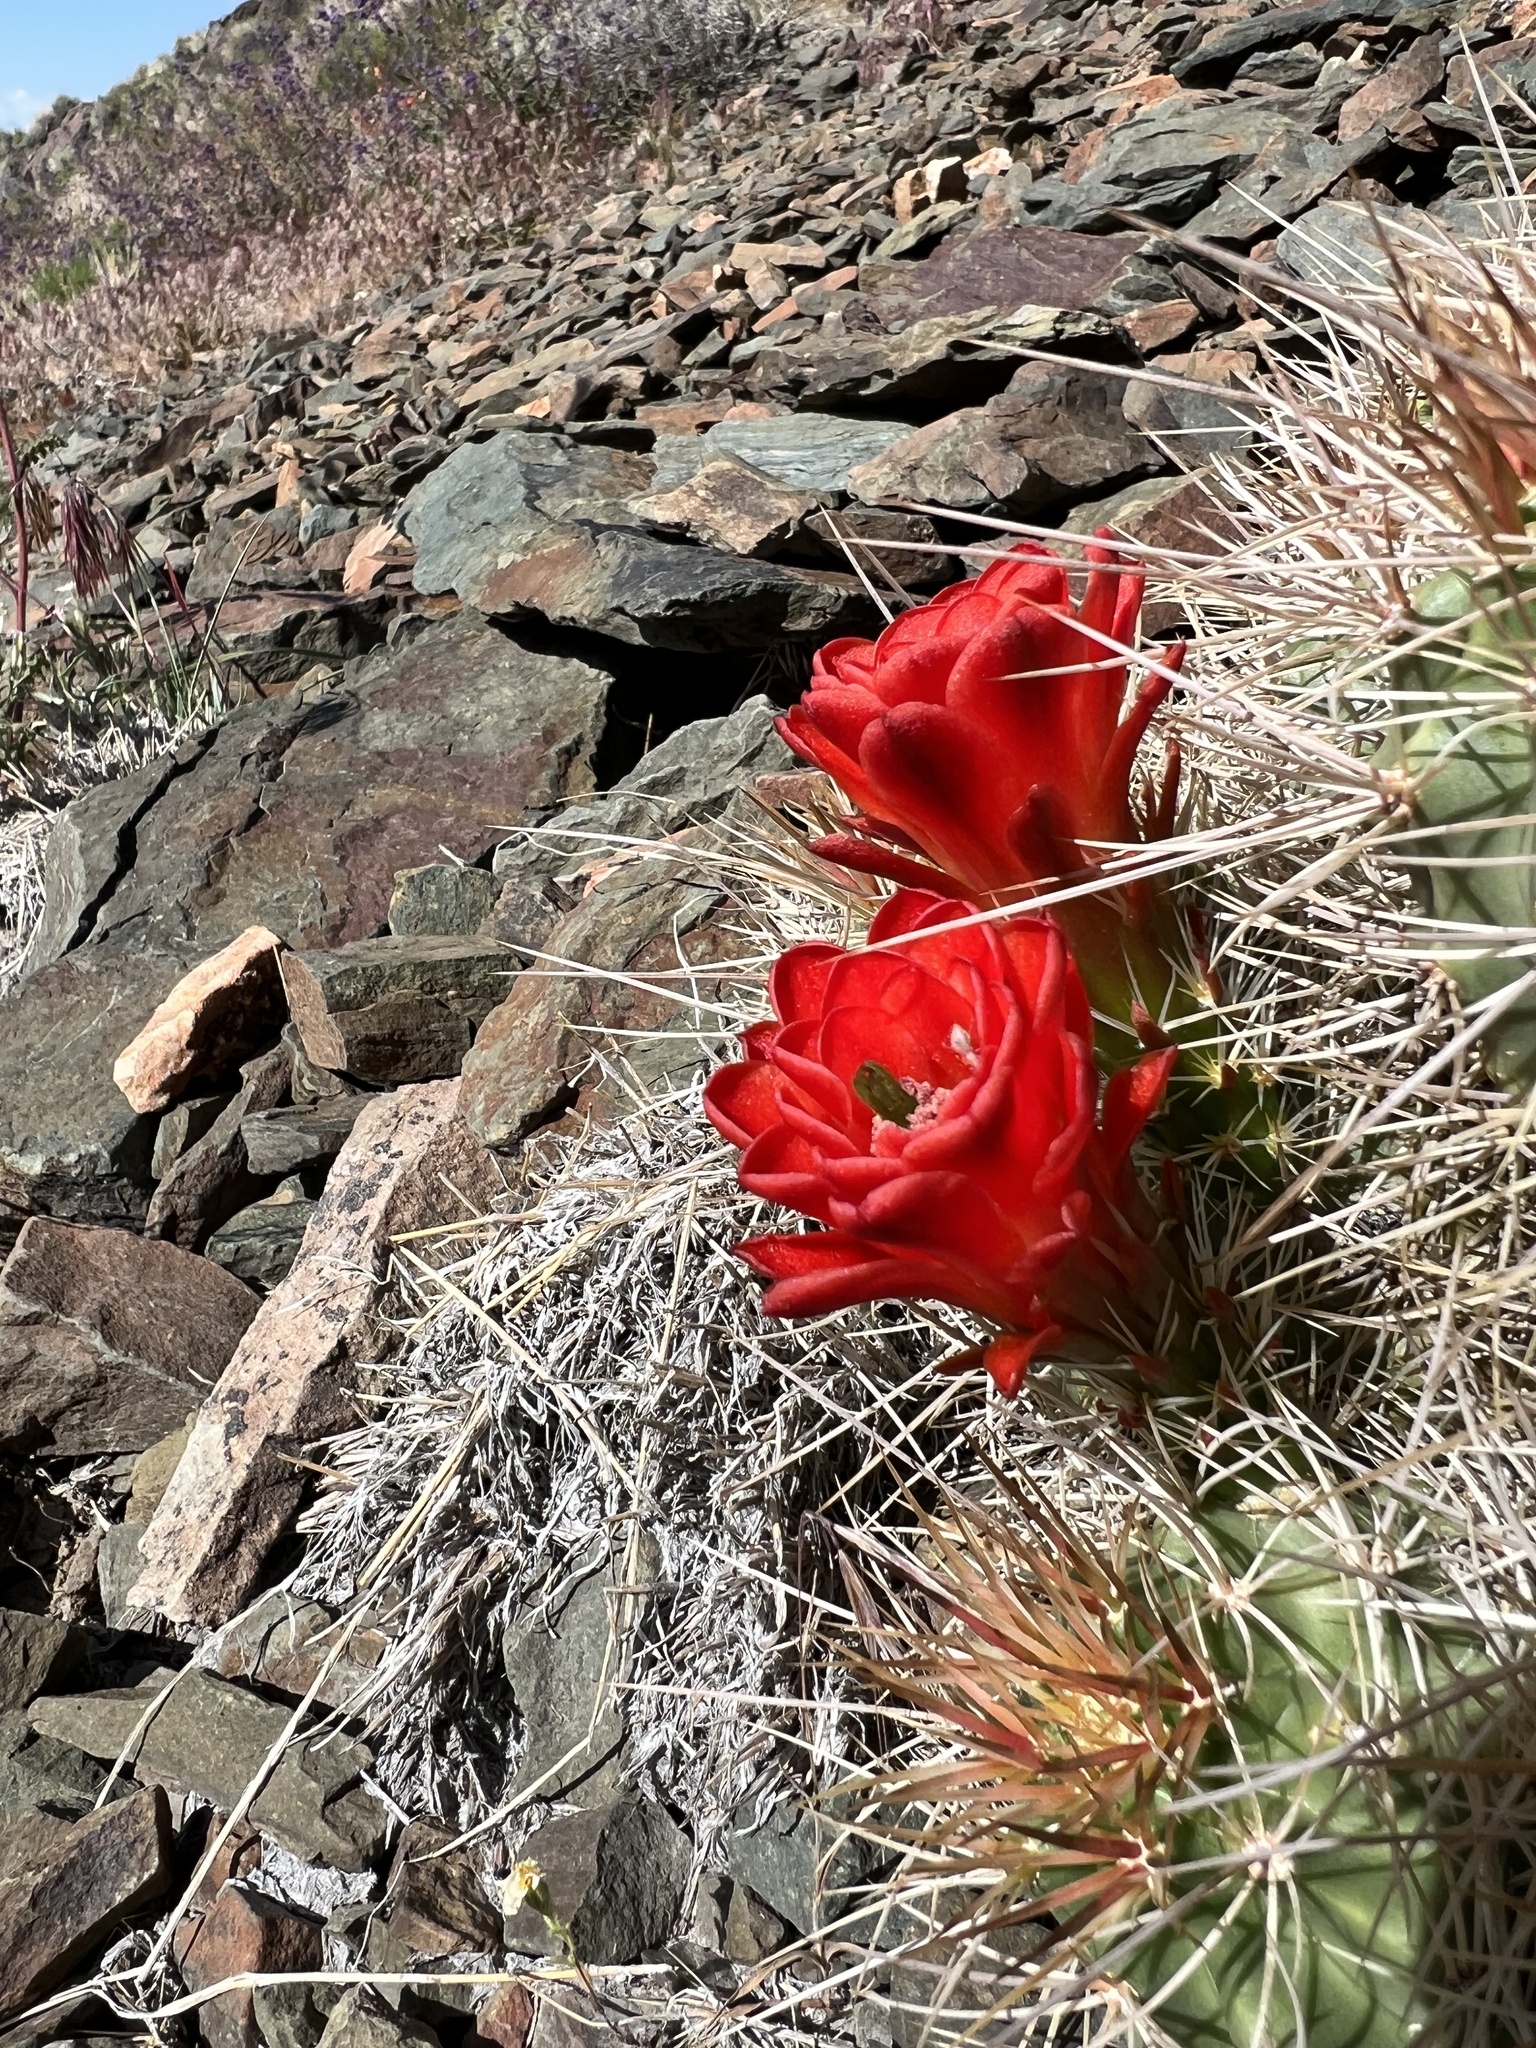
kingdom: Plantae
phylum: Tracheophyta
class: Magnoliopsida
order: Caryophyllales
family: Cactaceae
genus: Echinocereus
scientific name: Echinocereus triglochidiatus
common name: Claretcup hedgehog
